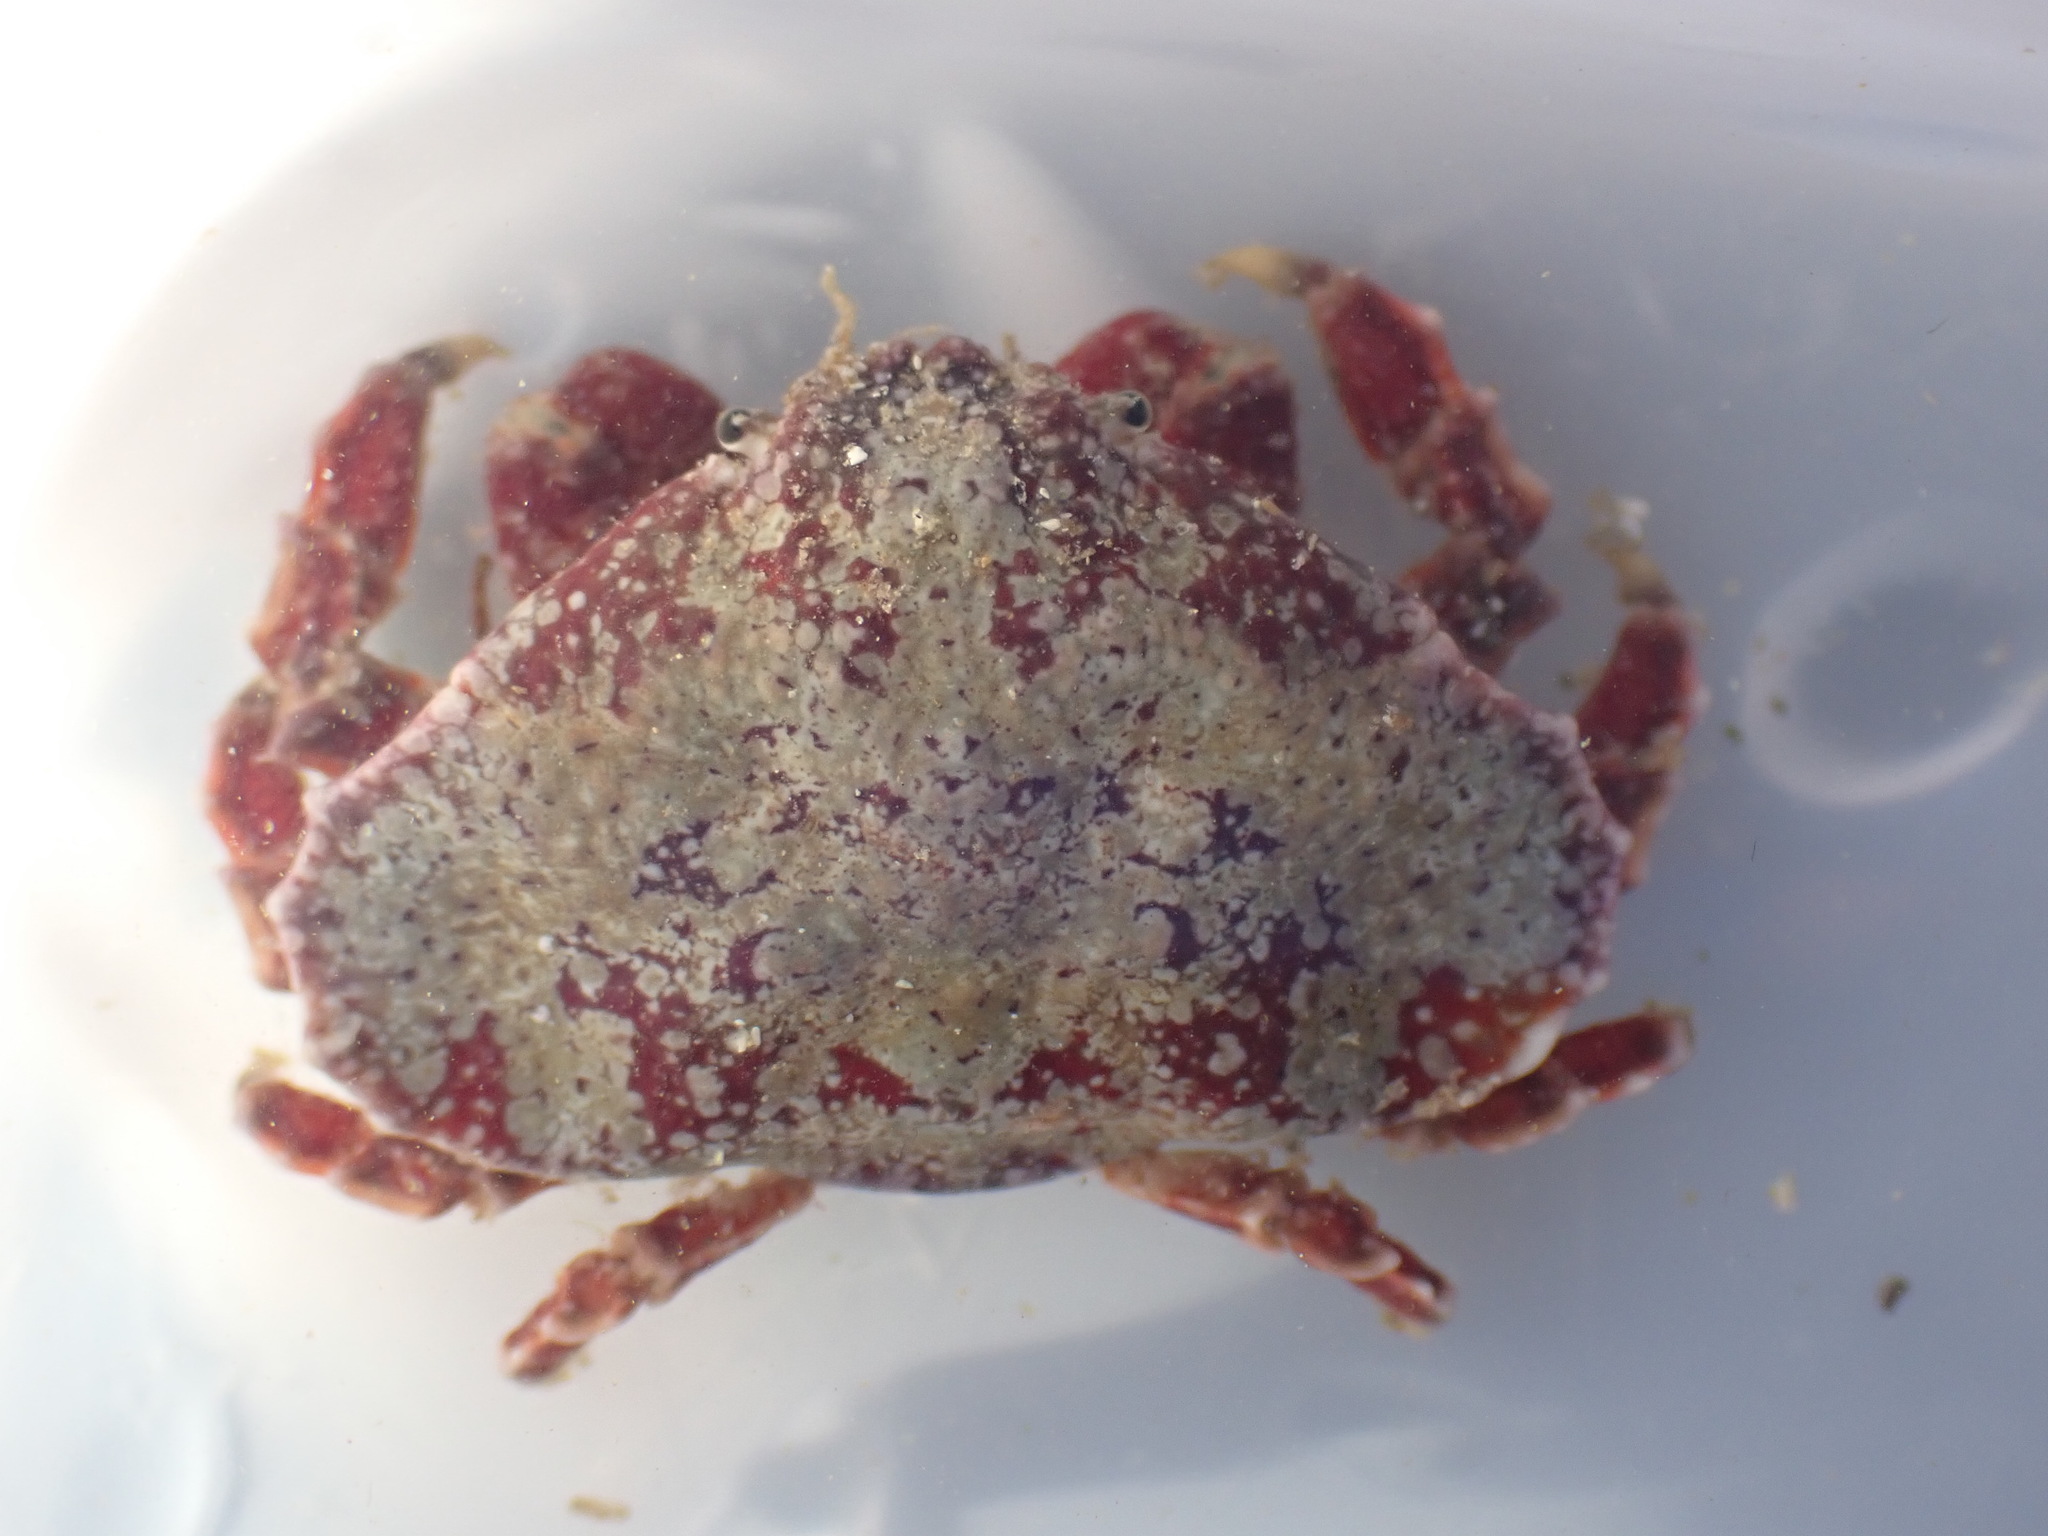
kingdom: Animalia
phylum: Arthropoda
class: Malacostraca
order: Decapoda
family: Majidae
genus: Eurynolambrus
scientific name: Eurynolambrus australis
